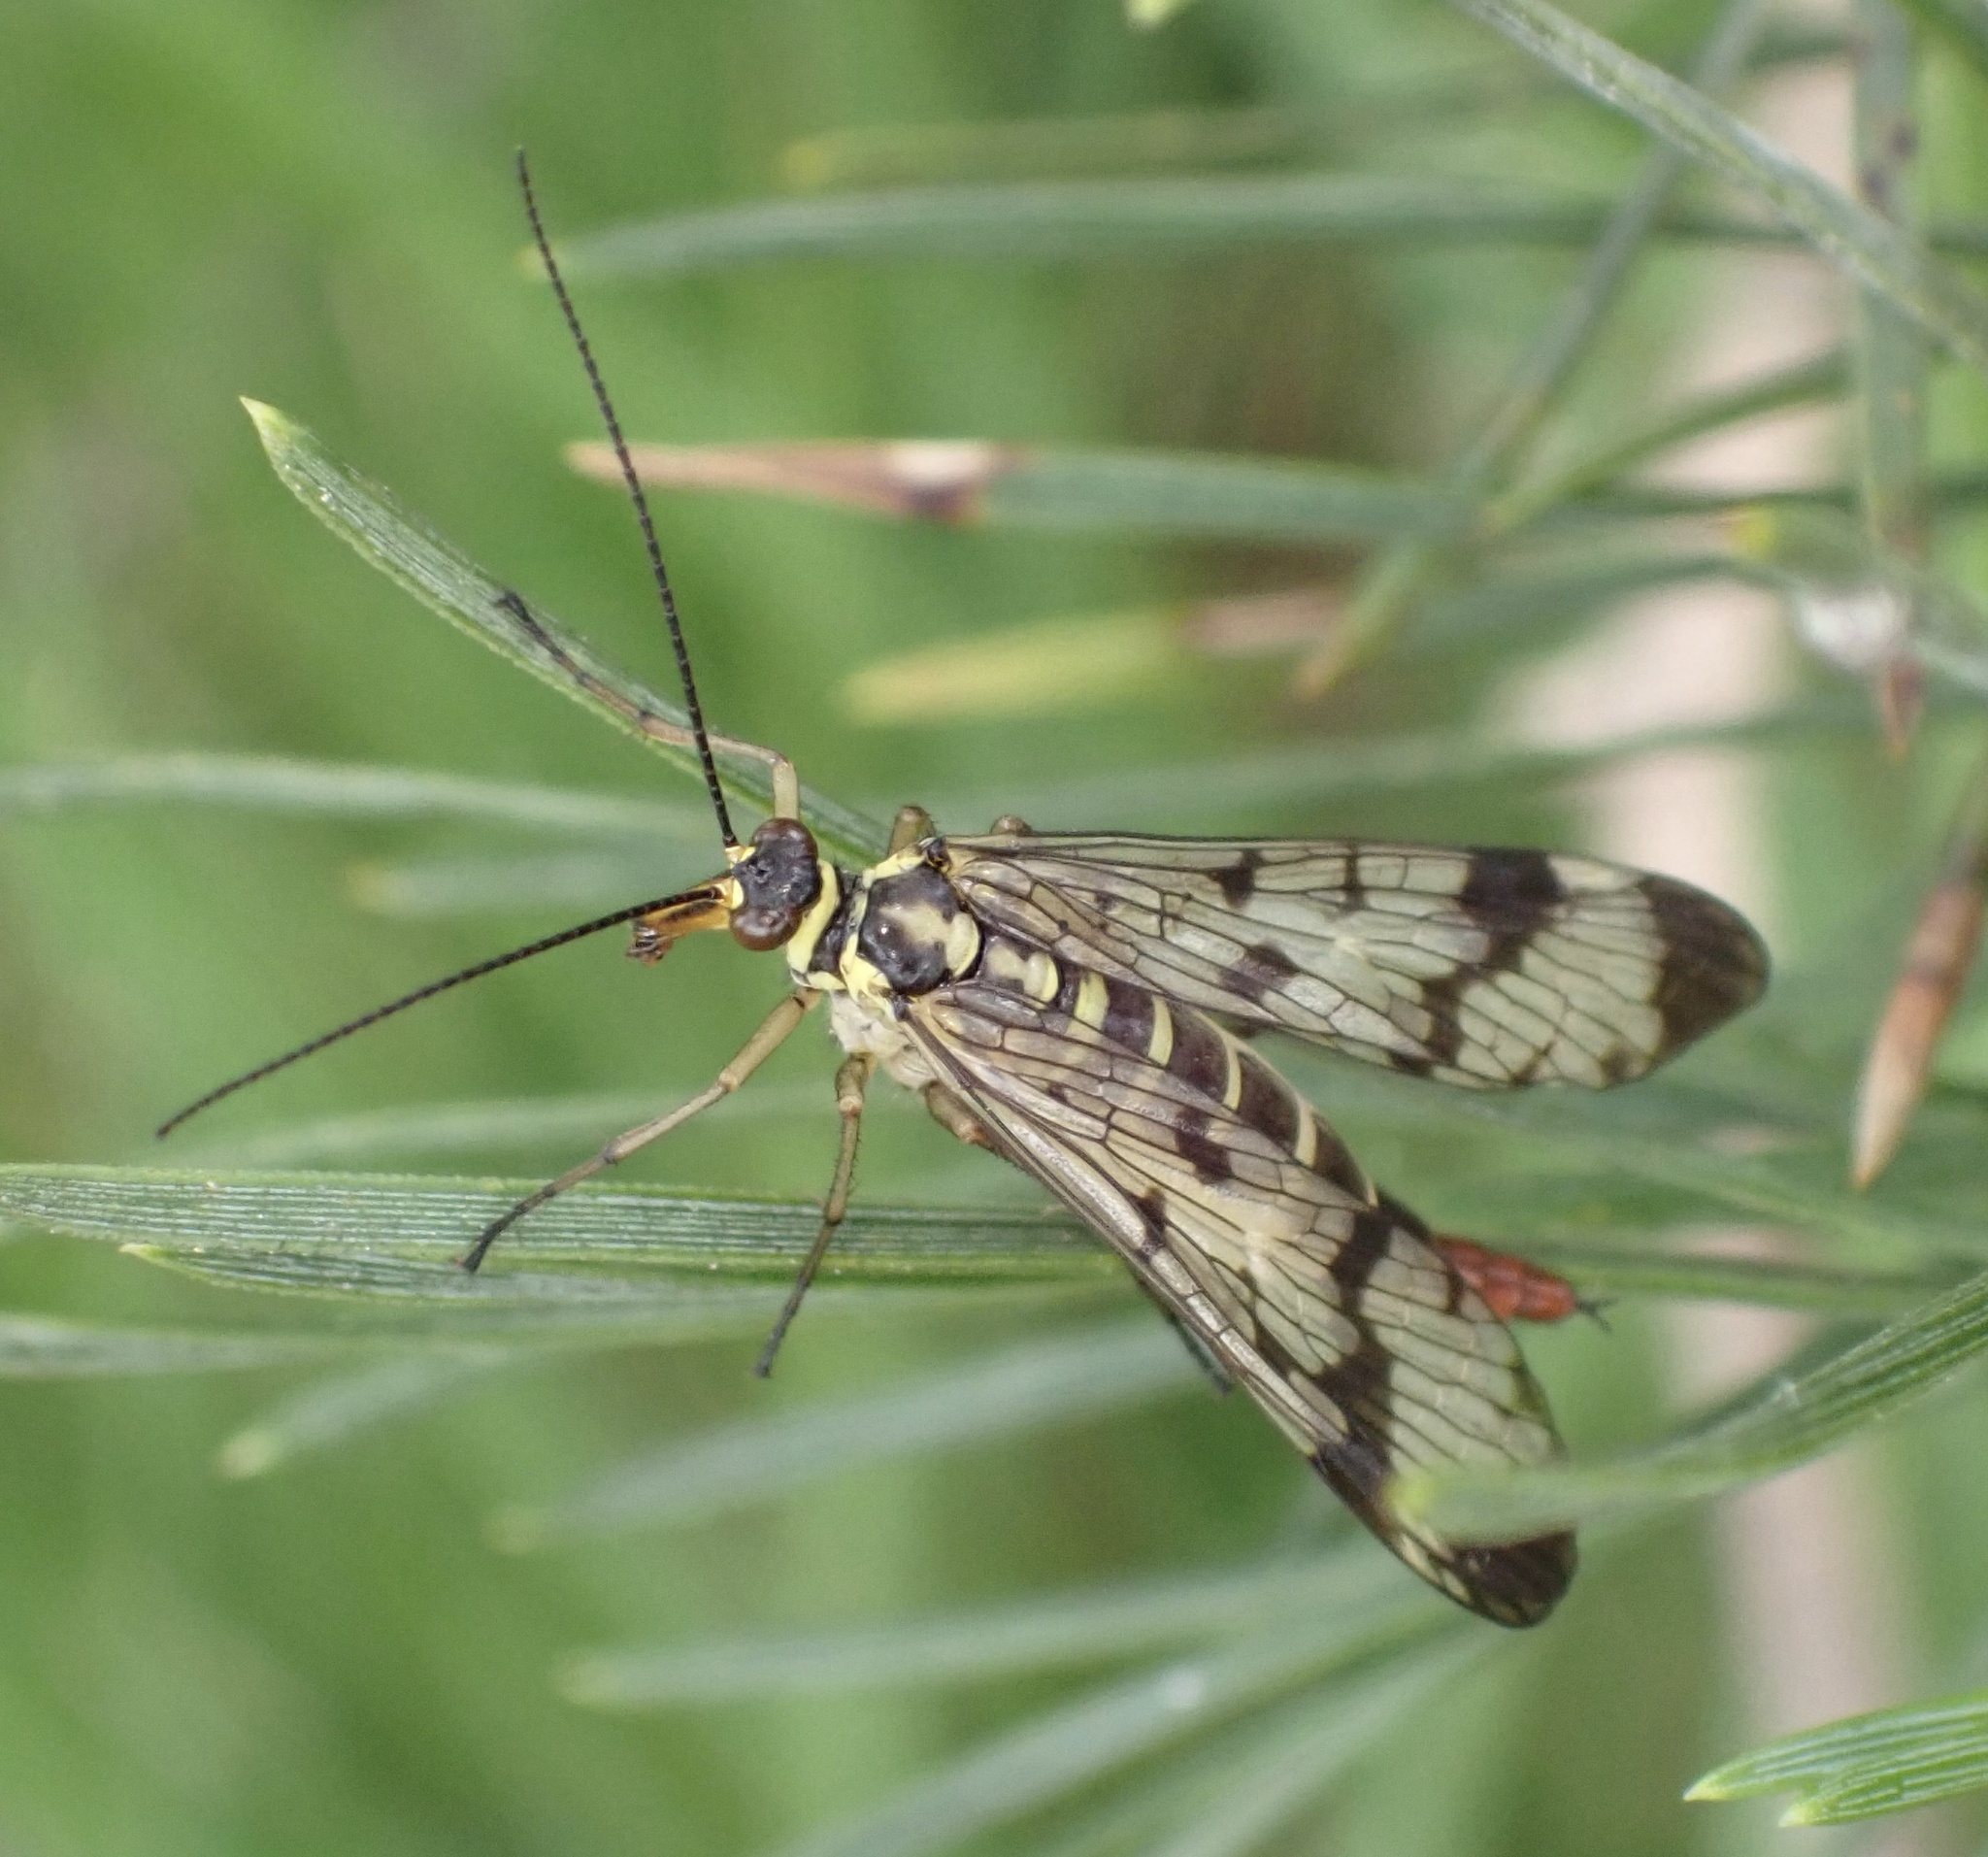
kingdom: Animalia
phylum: Arthropoda
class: Insecta
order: Mecoptera
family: Panorpidae
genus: Panorpa
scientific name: Panorpa communis
